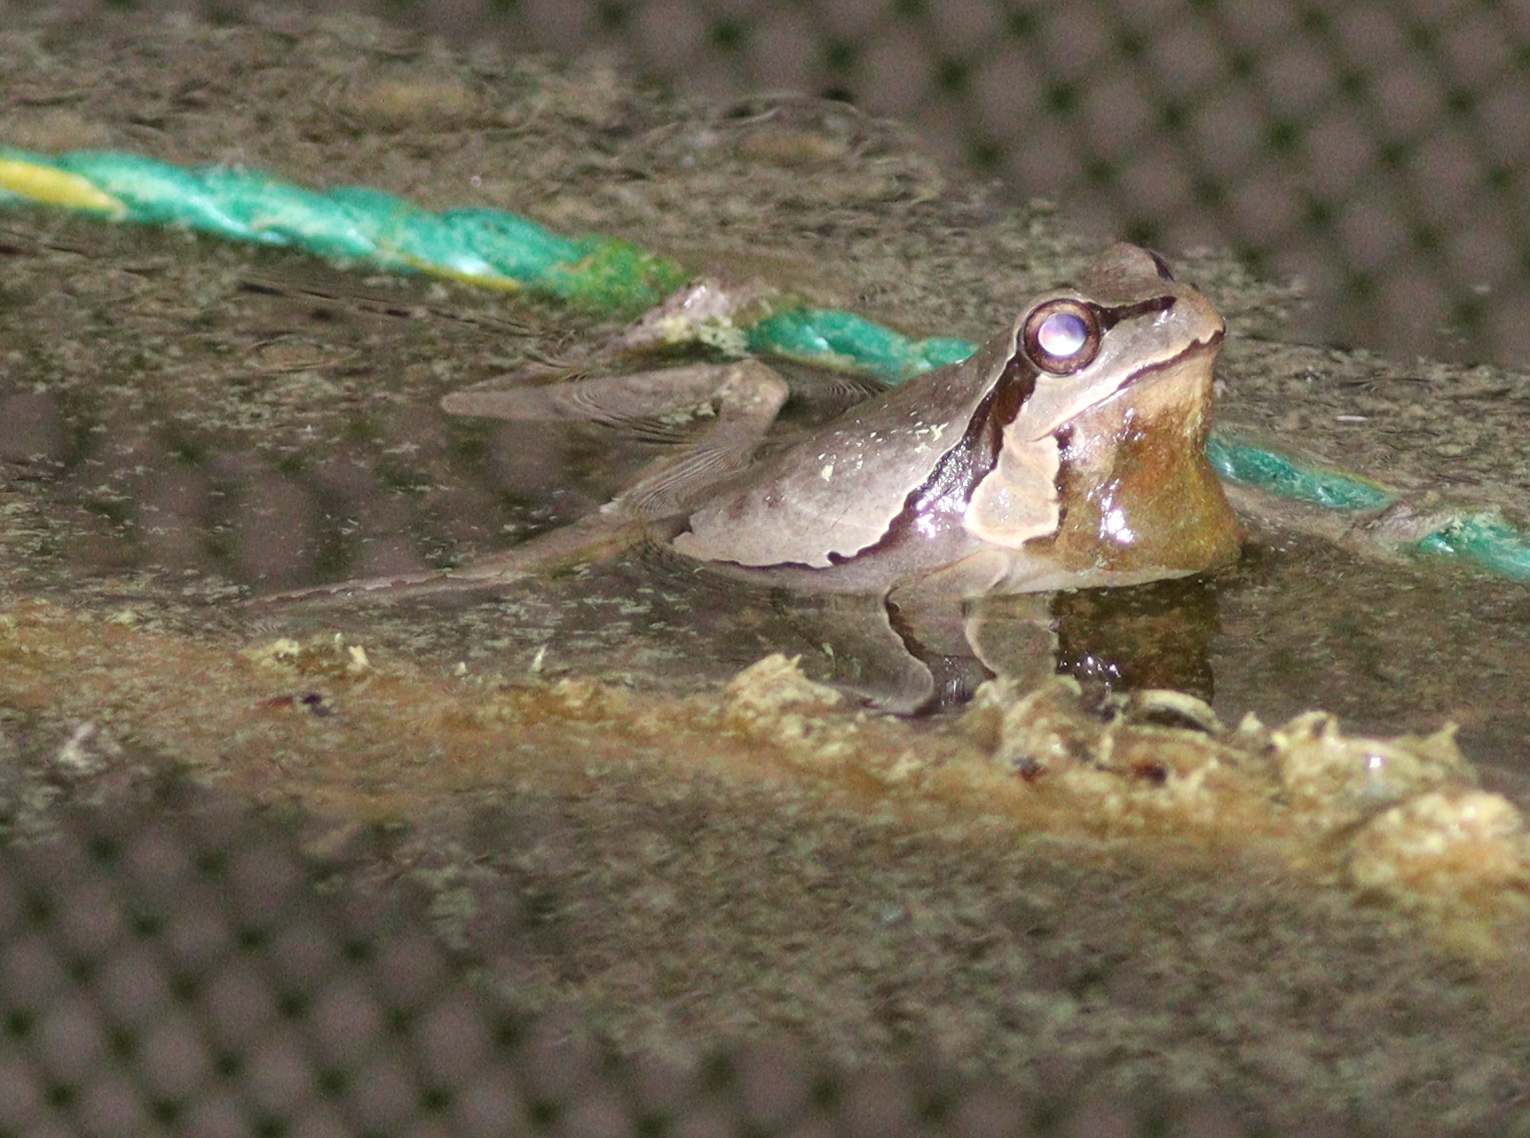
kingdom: Animalia
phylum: Chordata
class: Amphibia
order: Anura
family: Hylidae
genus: Hyla
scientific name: Hyla orientalis
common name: Caucasian treefrog
